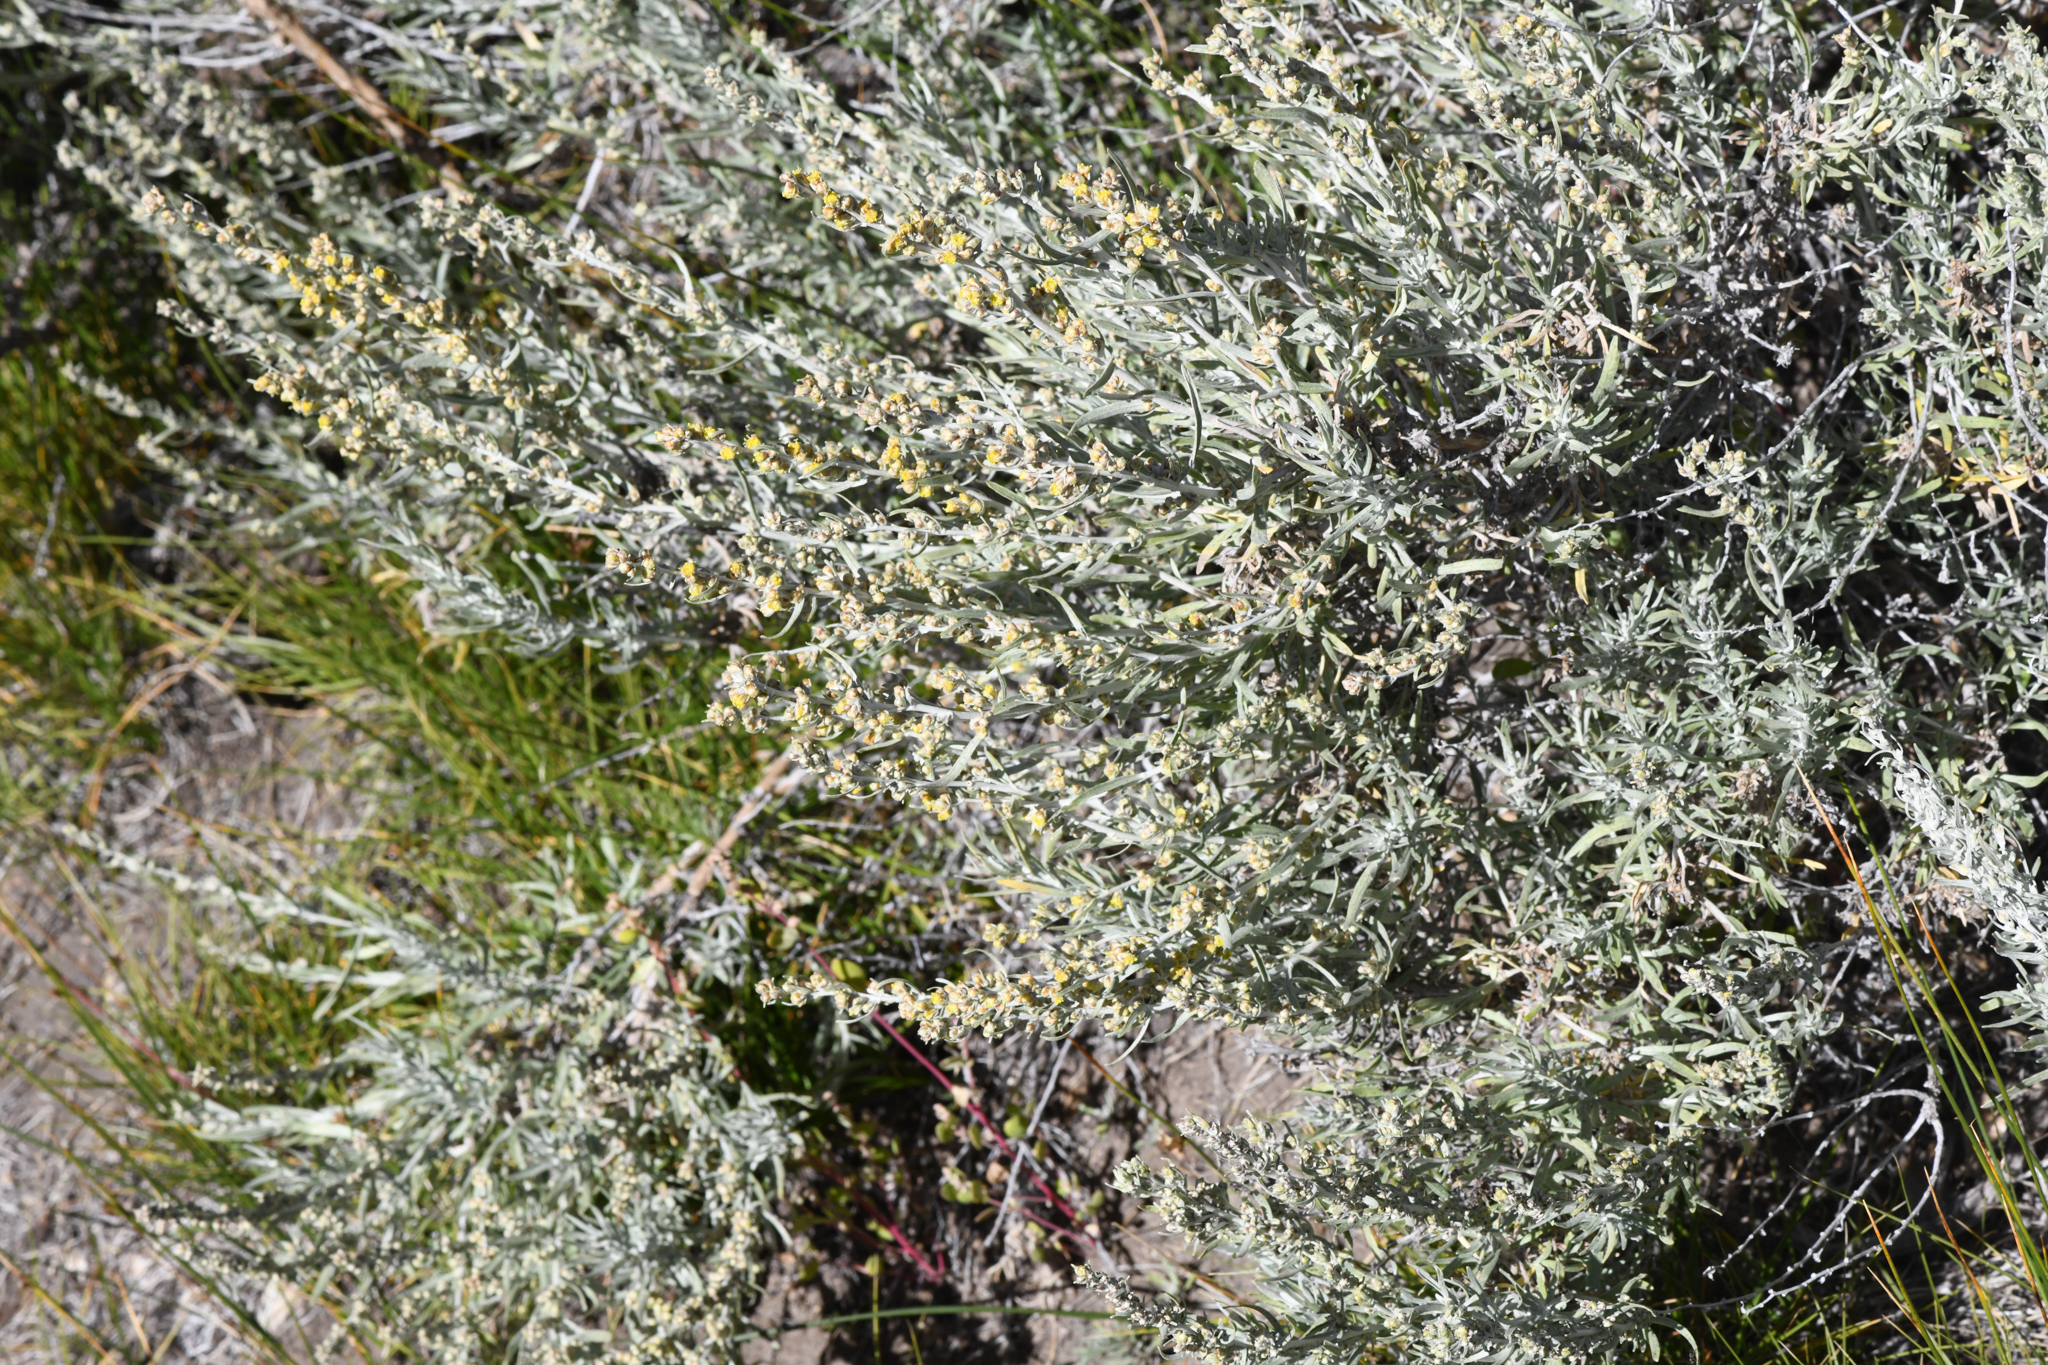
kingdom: Plantae
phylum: Tracheophyta
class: Magnoliopsida
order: Asterales
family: Asteraceae
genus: Artemisia
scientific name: Artemisia cana
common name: Silver sagebrush
